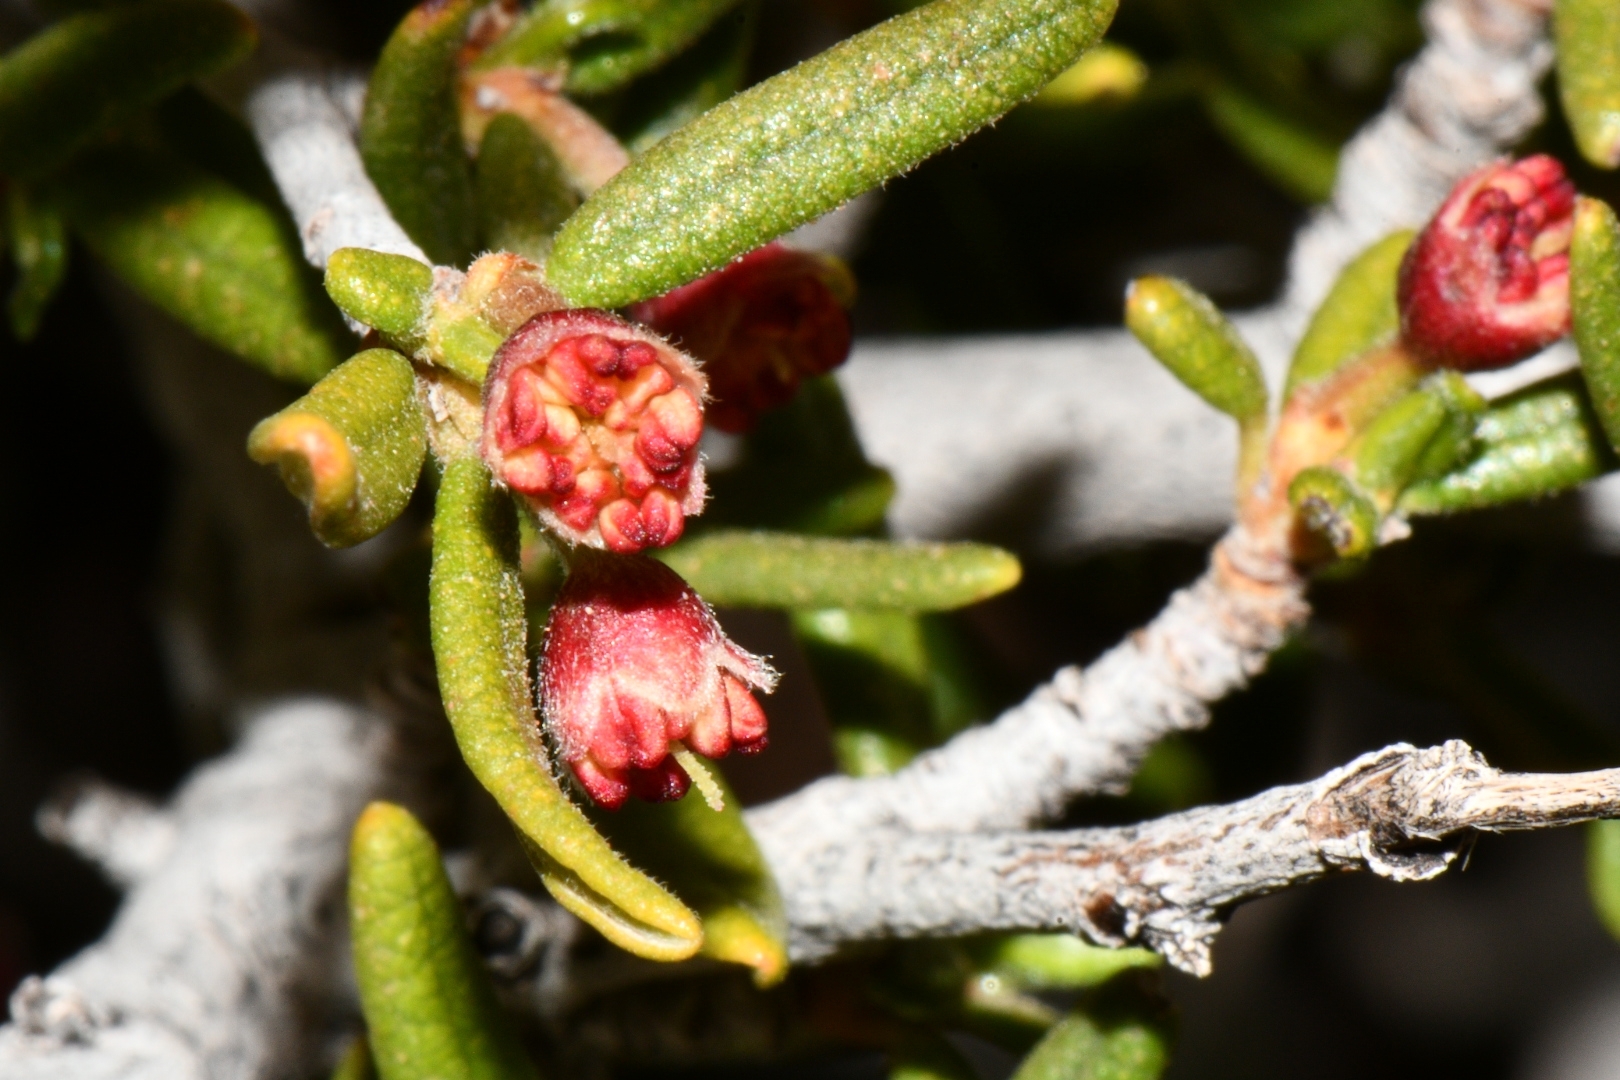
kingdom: Plantae
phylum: Tracheophyta
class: Magnoliopsida
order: Rosales
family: Rosaceae
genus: Cercocarpus
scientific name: Cercocarpus intricatus
